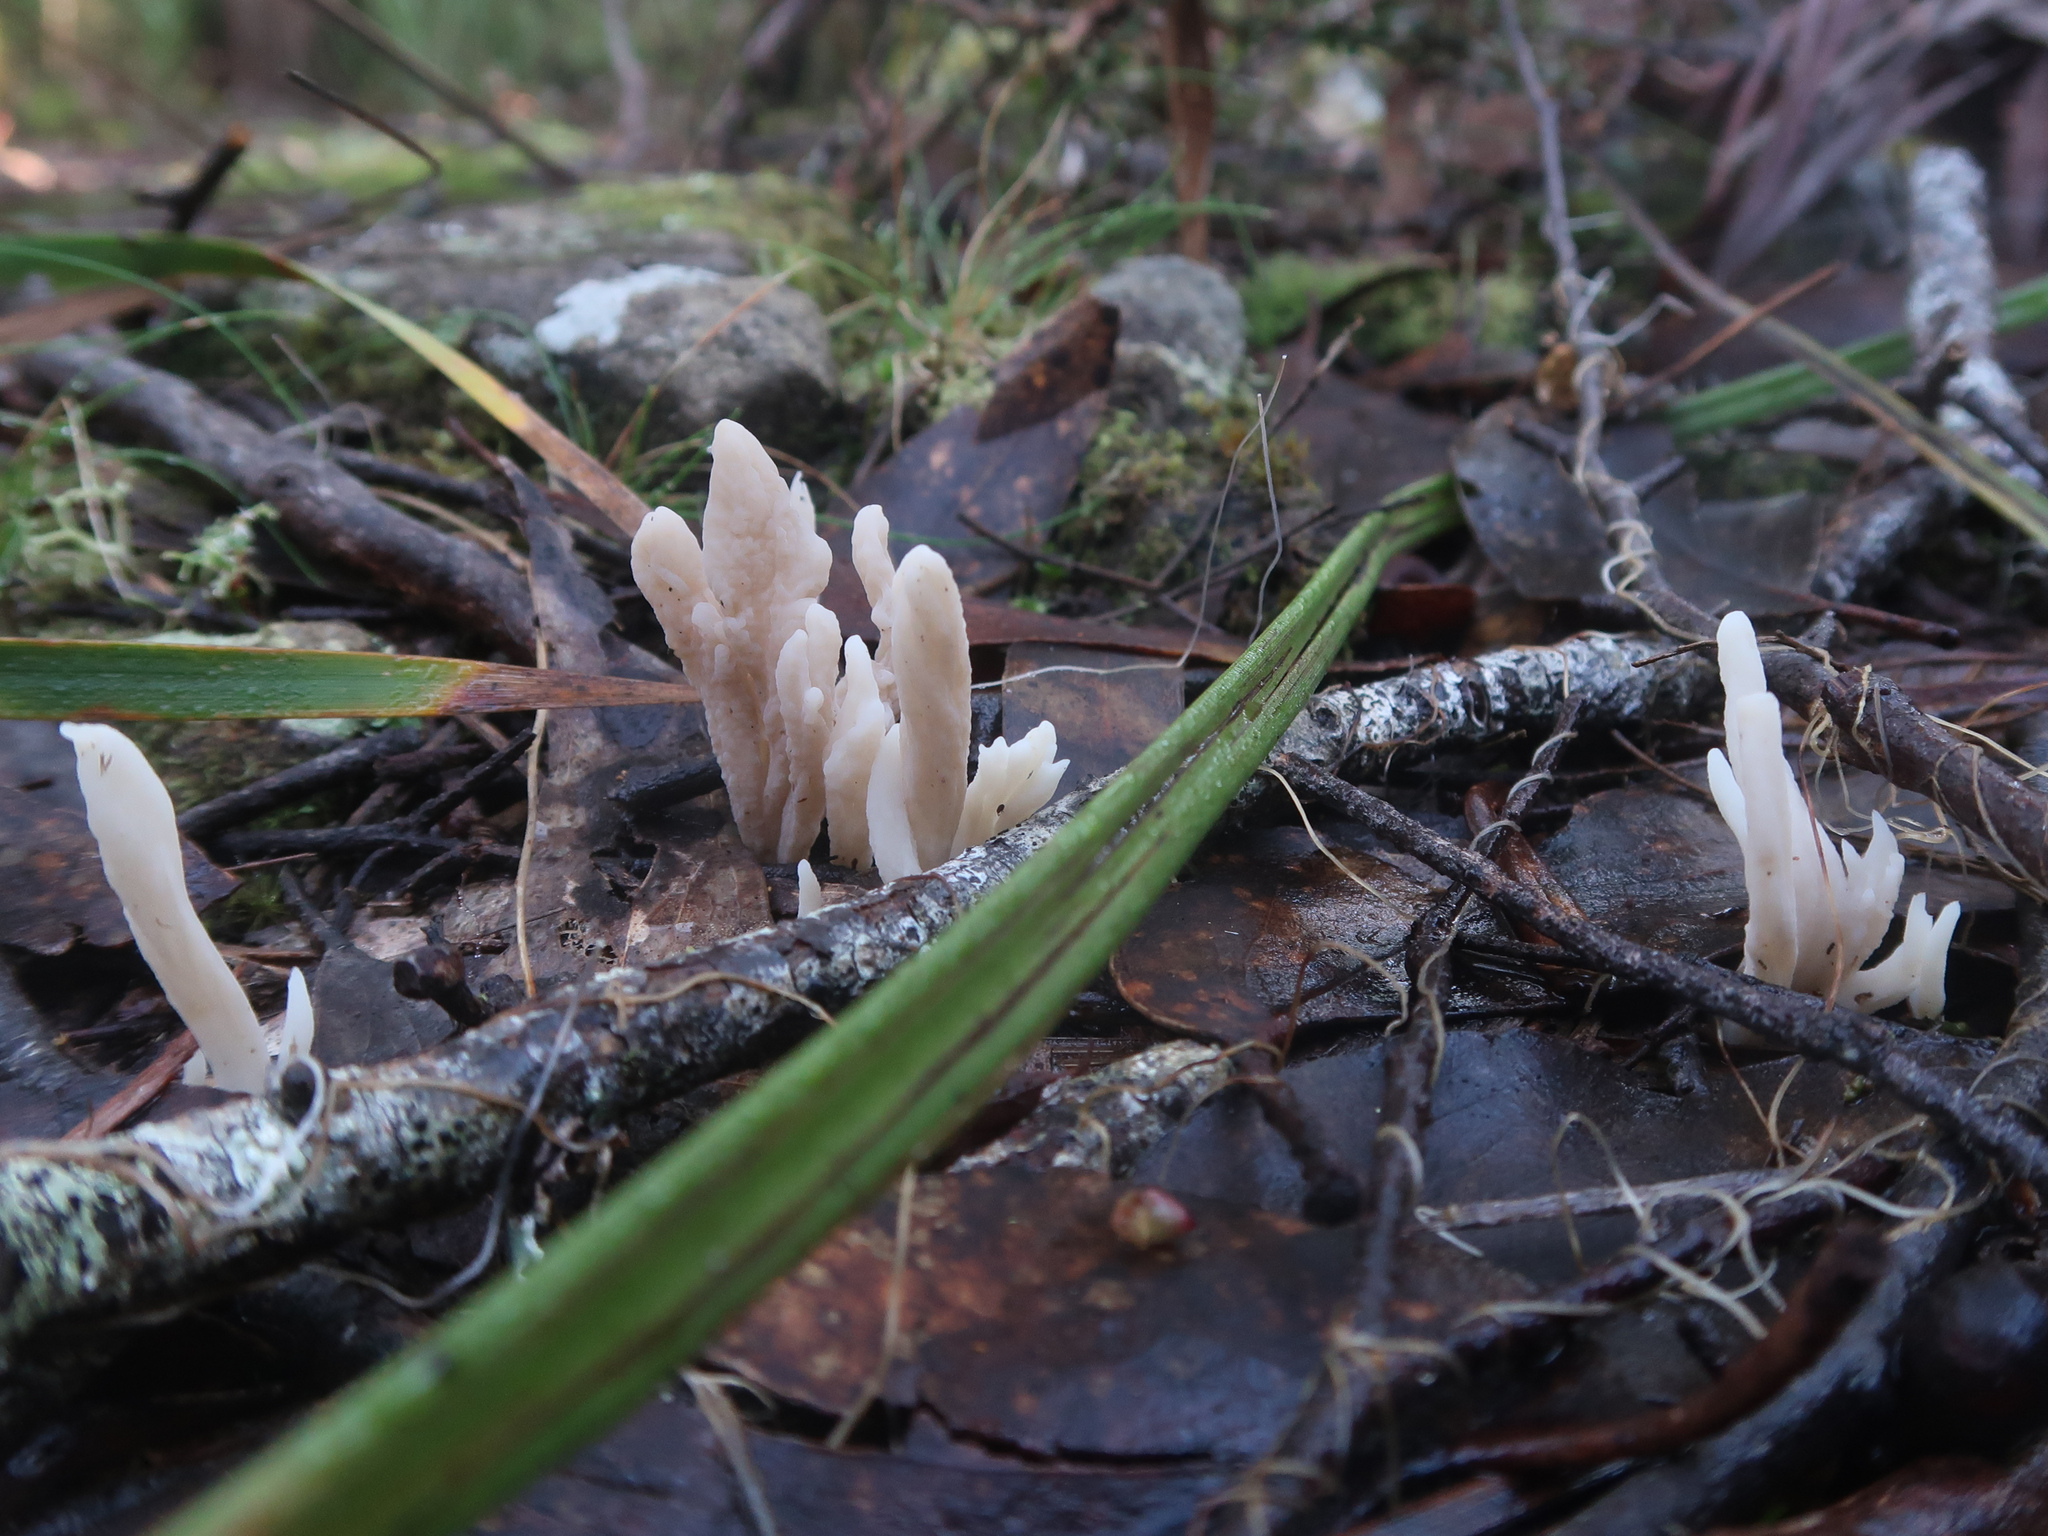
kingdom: Fungi
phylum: Basidiomycota
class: Agaricomycetes
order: Cantharellales
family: Hydnaceae
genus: Clavulina
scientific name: Clavulina subrugosa
